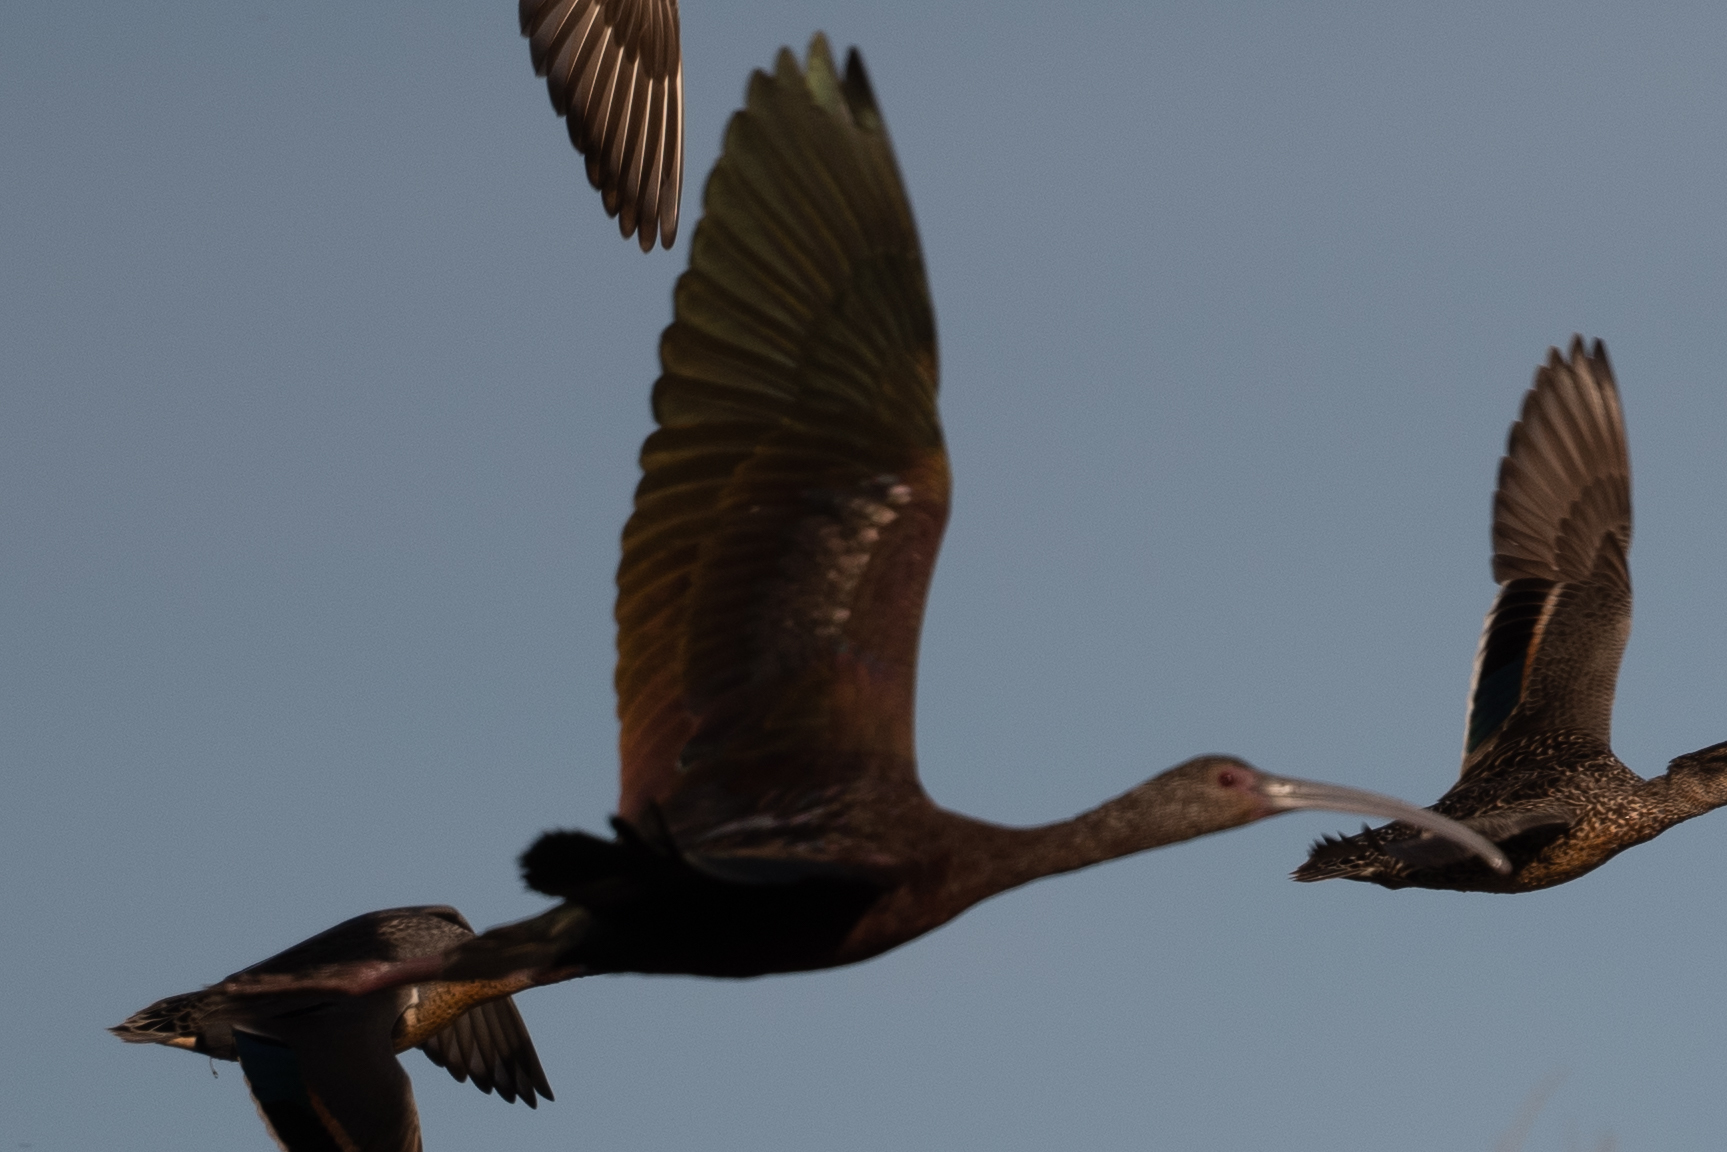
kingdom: Animalia
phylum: Chordata
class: Aves
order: Pelecaniformes
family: Threskiornithidae
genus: Plegadis
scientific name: Plegadis chihi
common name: White-faced ibis
